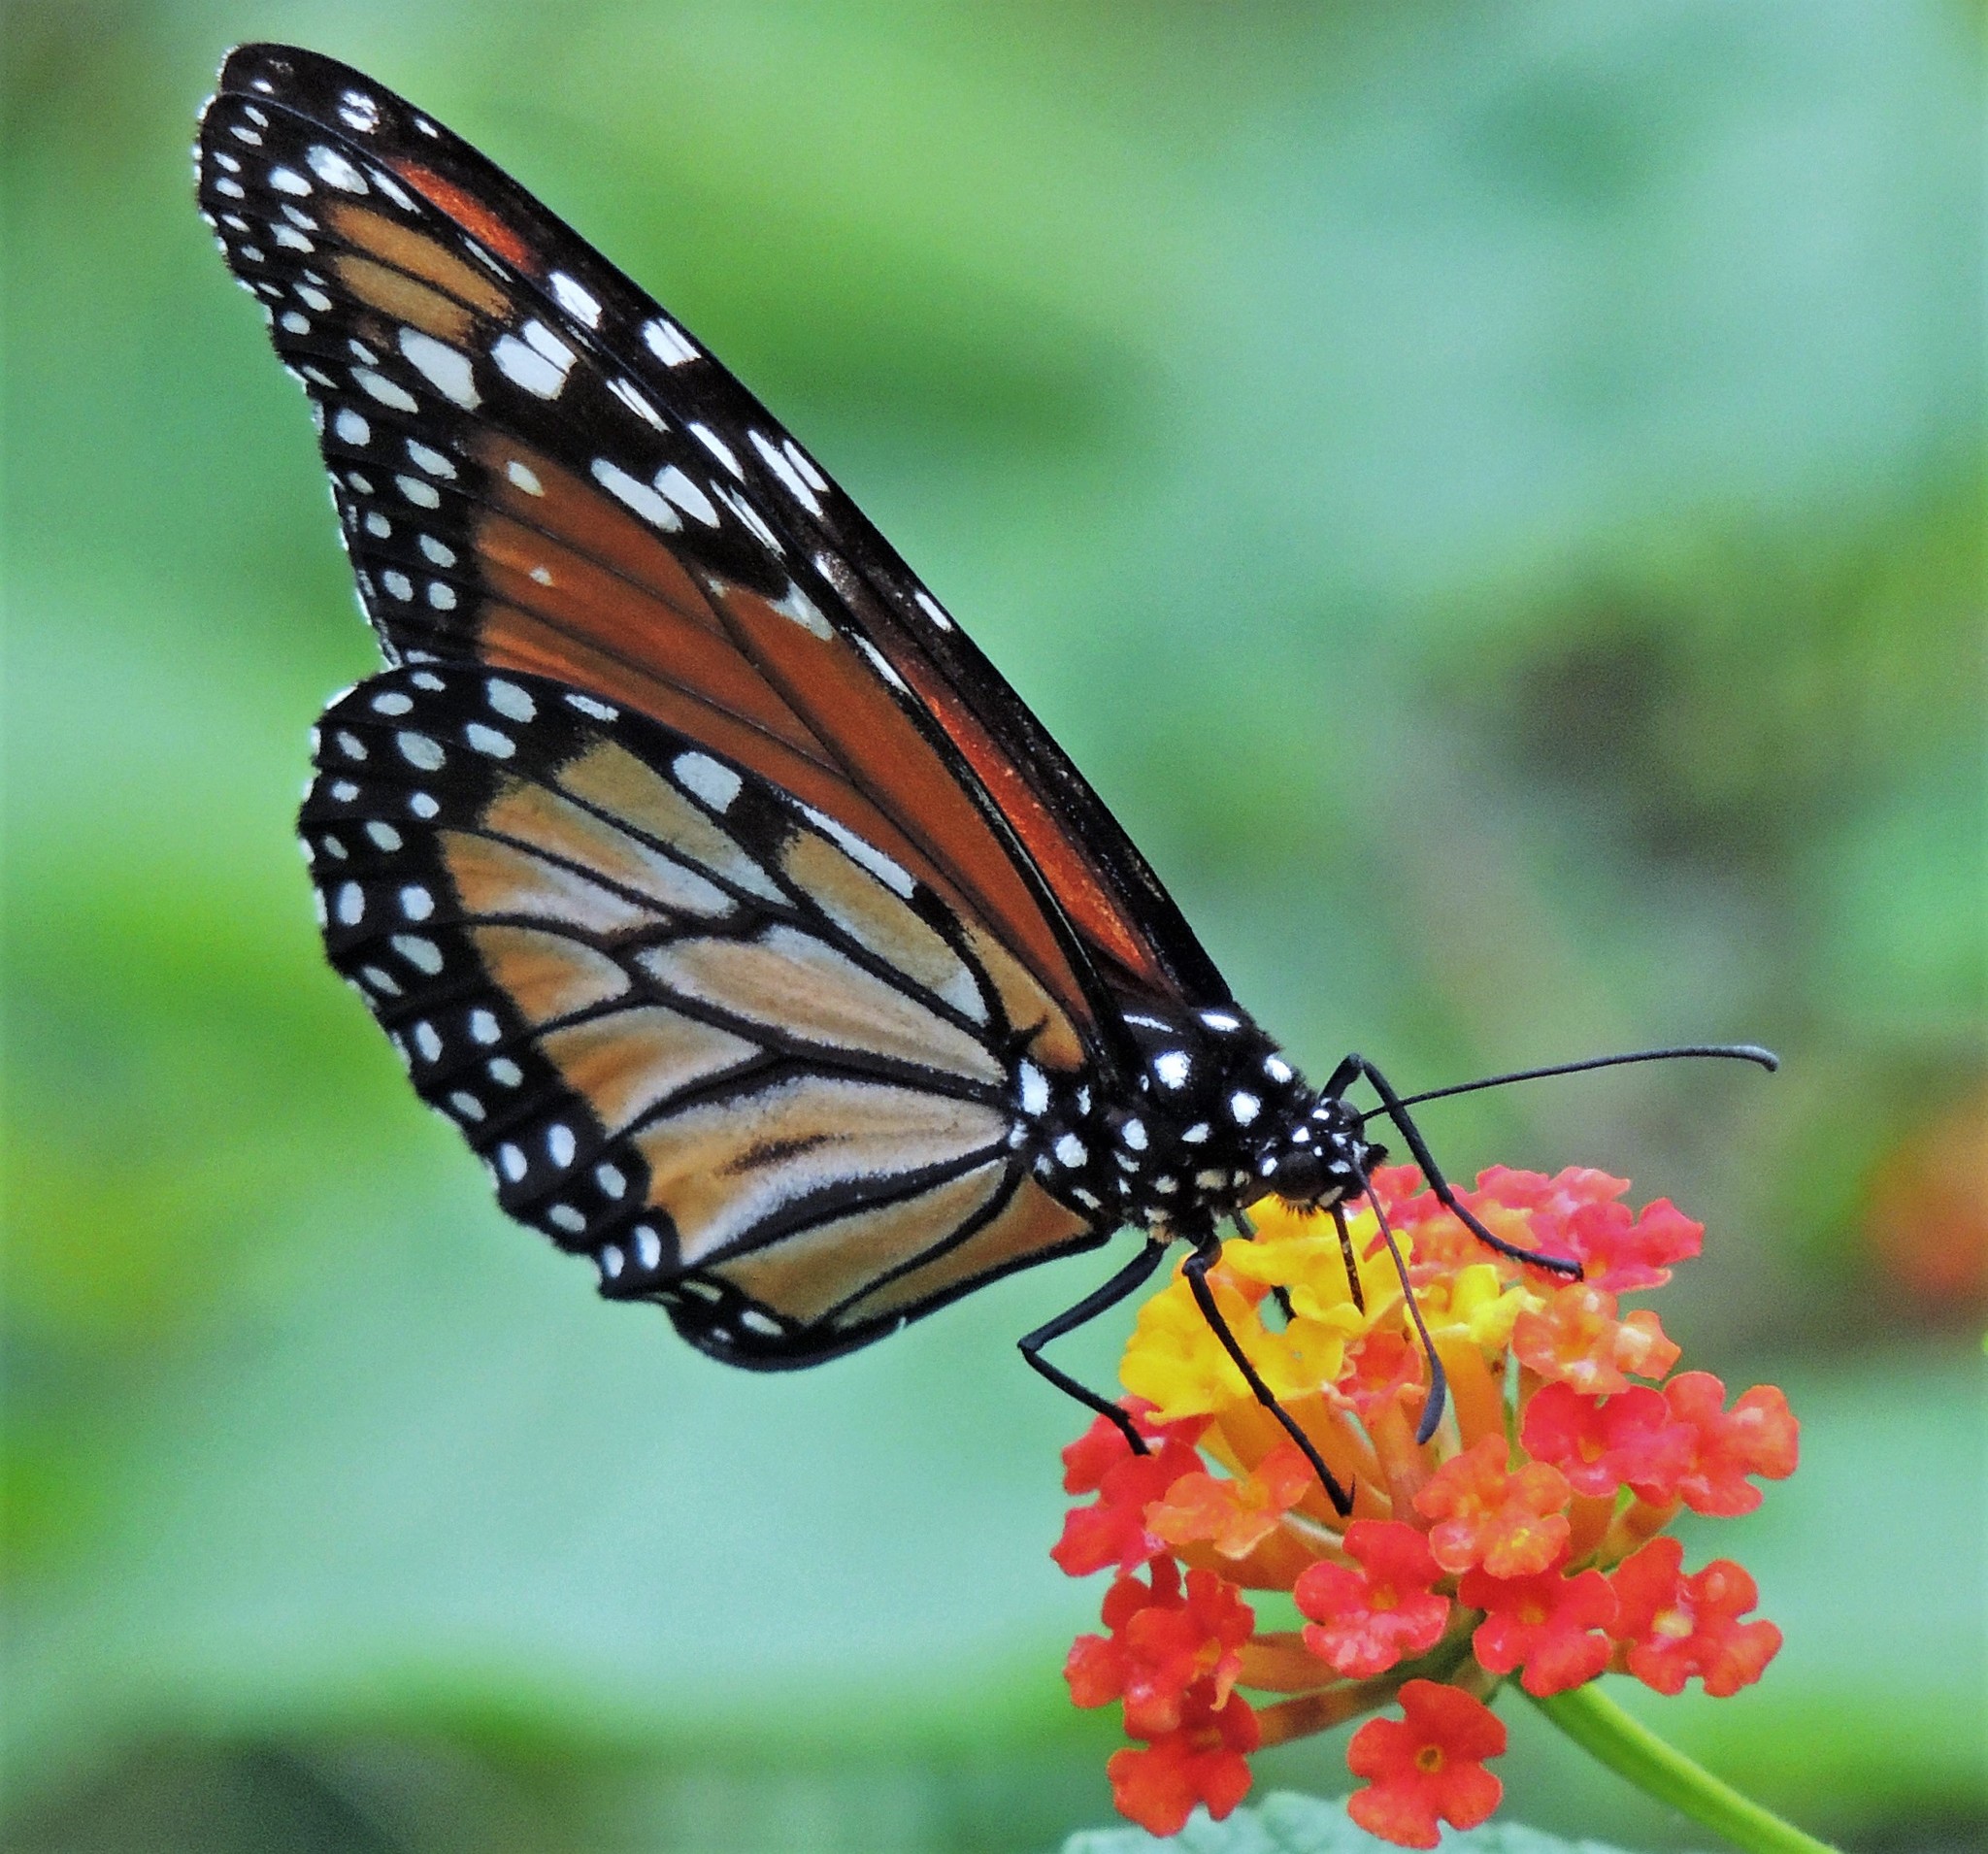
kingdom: Animalia
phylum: Arthropoda
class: Insecta
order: Lepidoptera
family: Nymphalidae
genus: Danaus
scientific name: Danaus erippus
